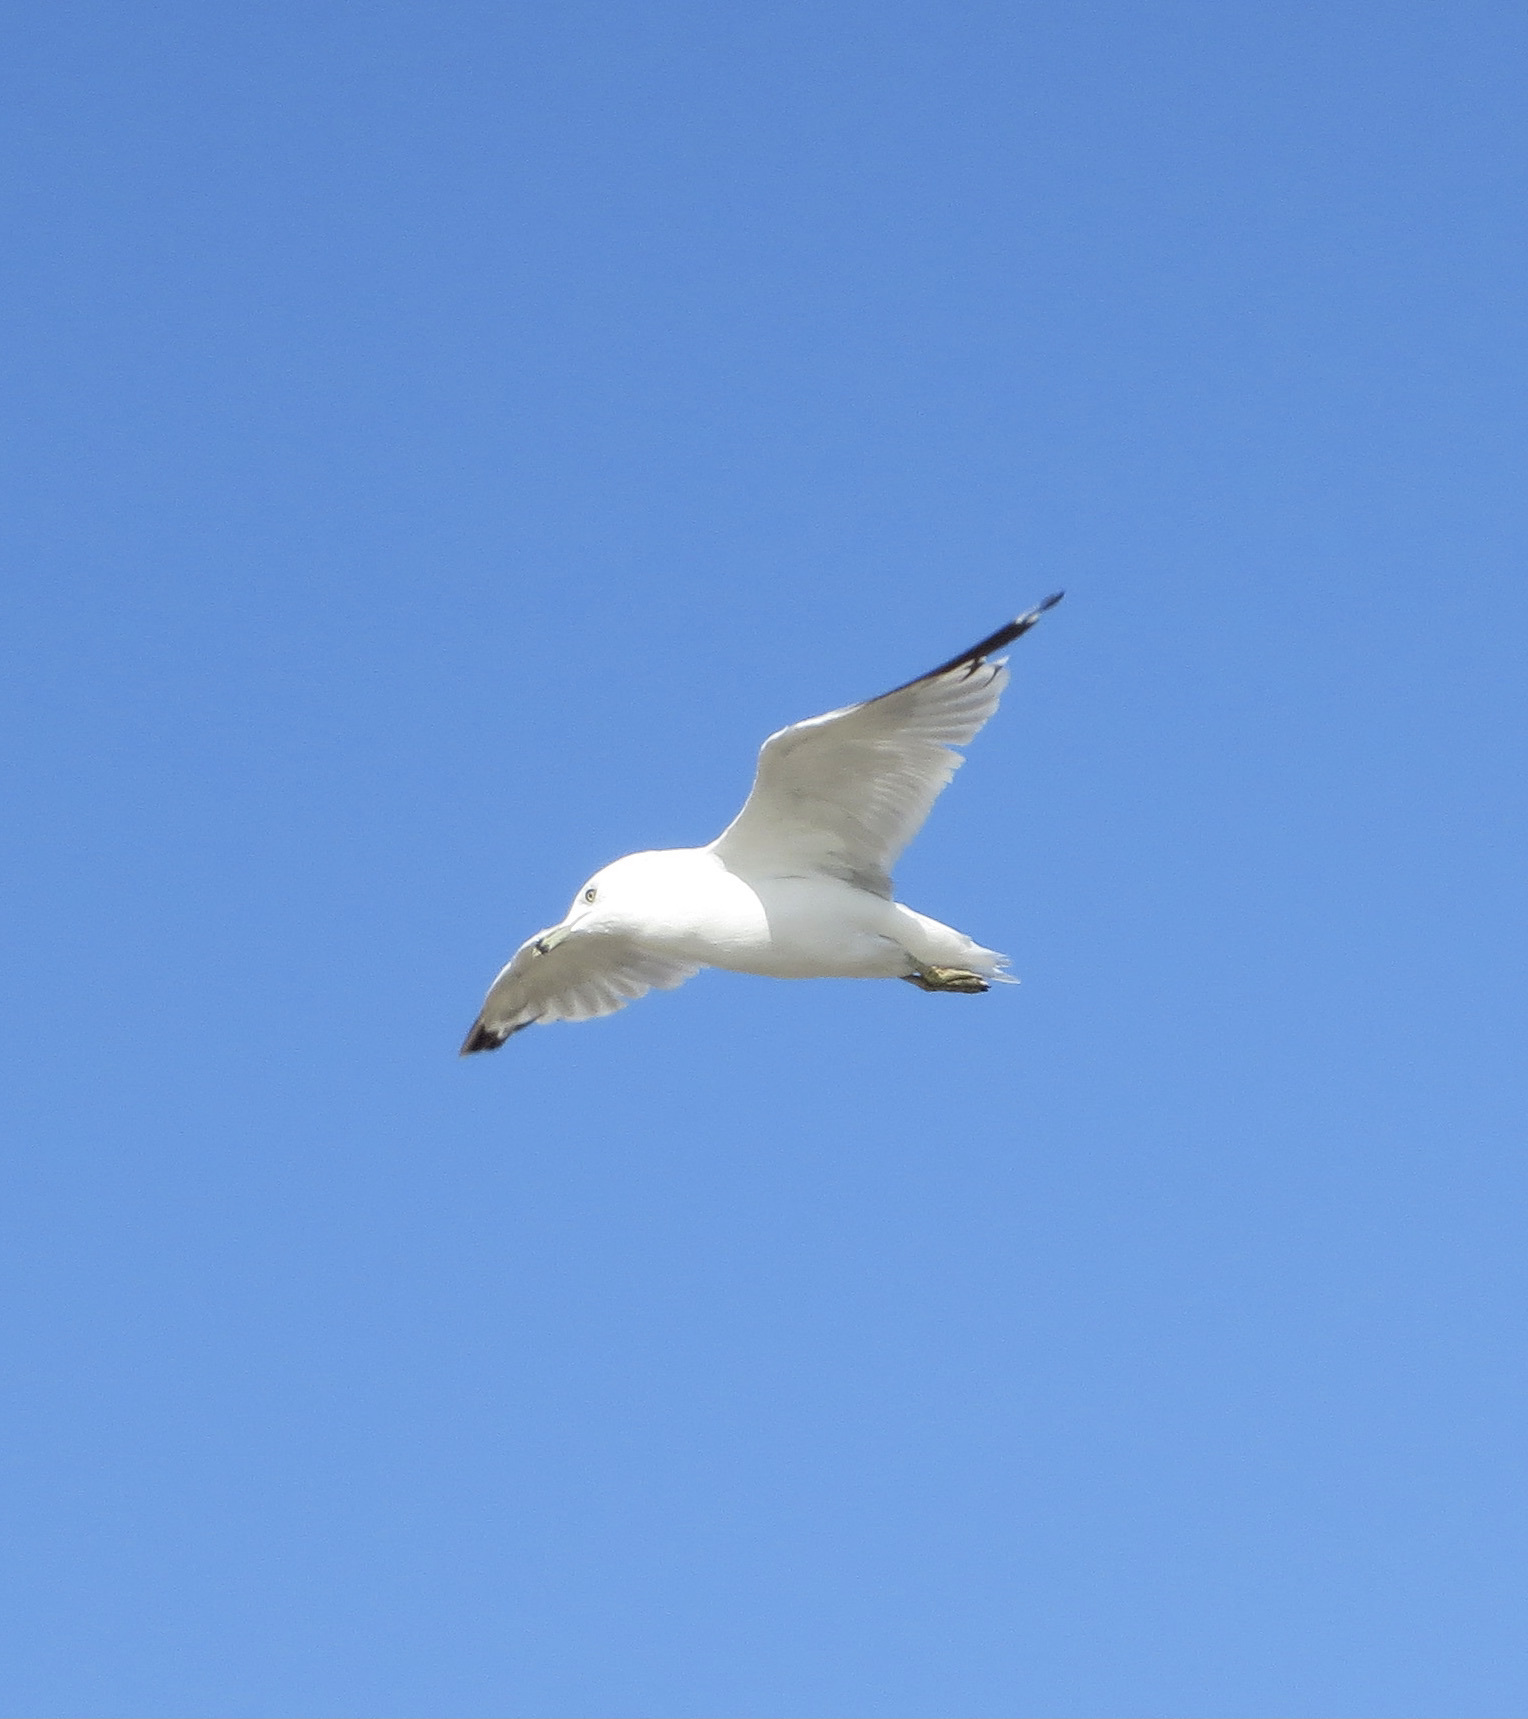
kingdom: Animalia
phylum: Chordata
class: Aves
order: Charadriiformes
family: Laridae
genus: Larus
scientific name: Larus delawarensis
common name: Ring-billed gull
